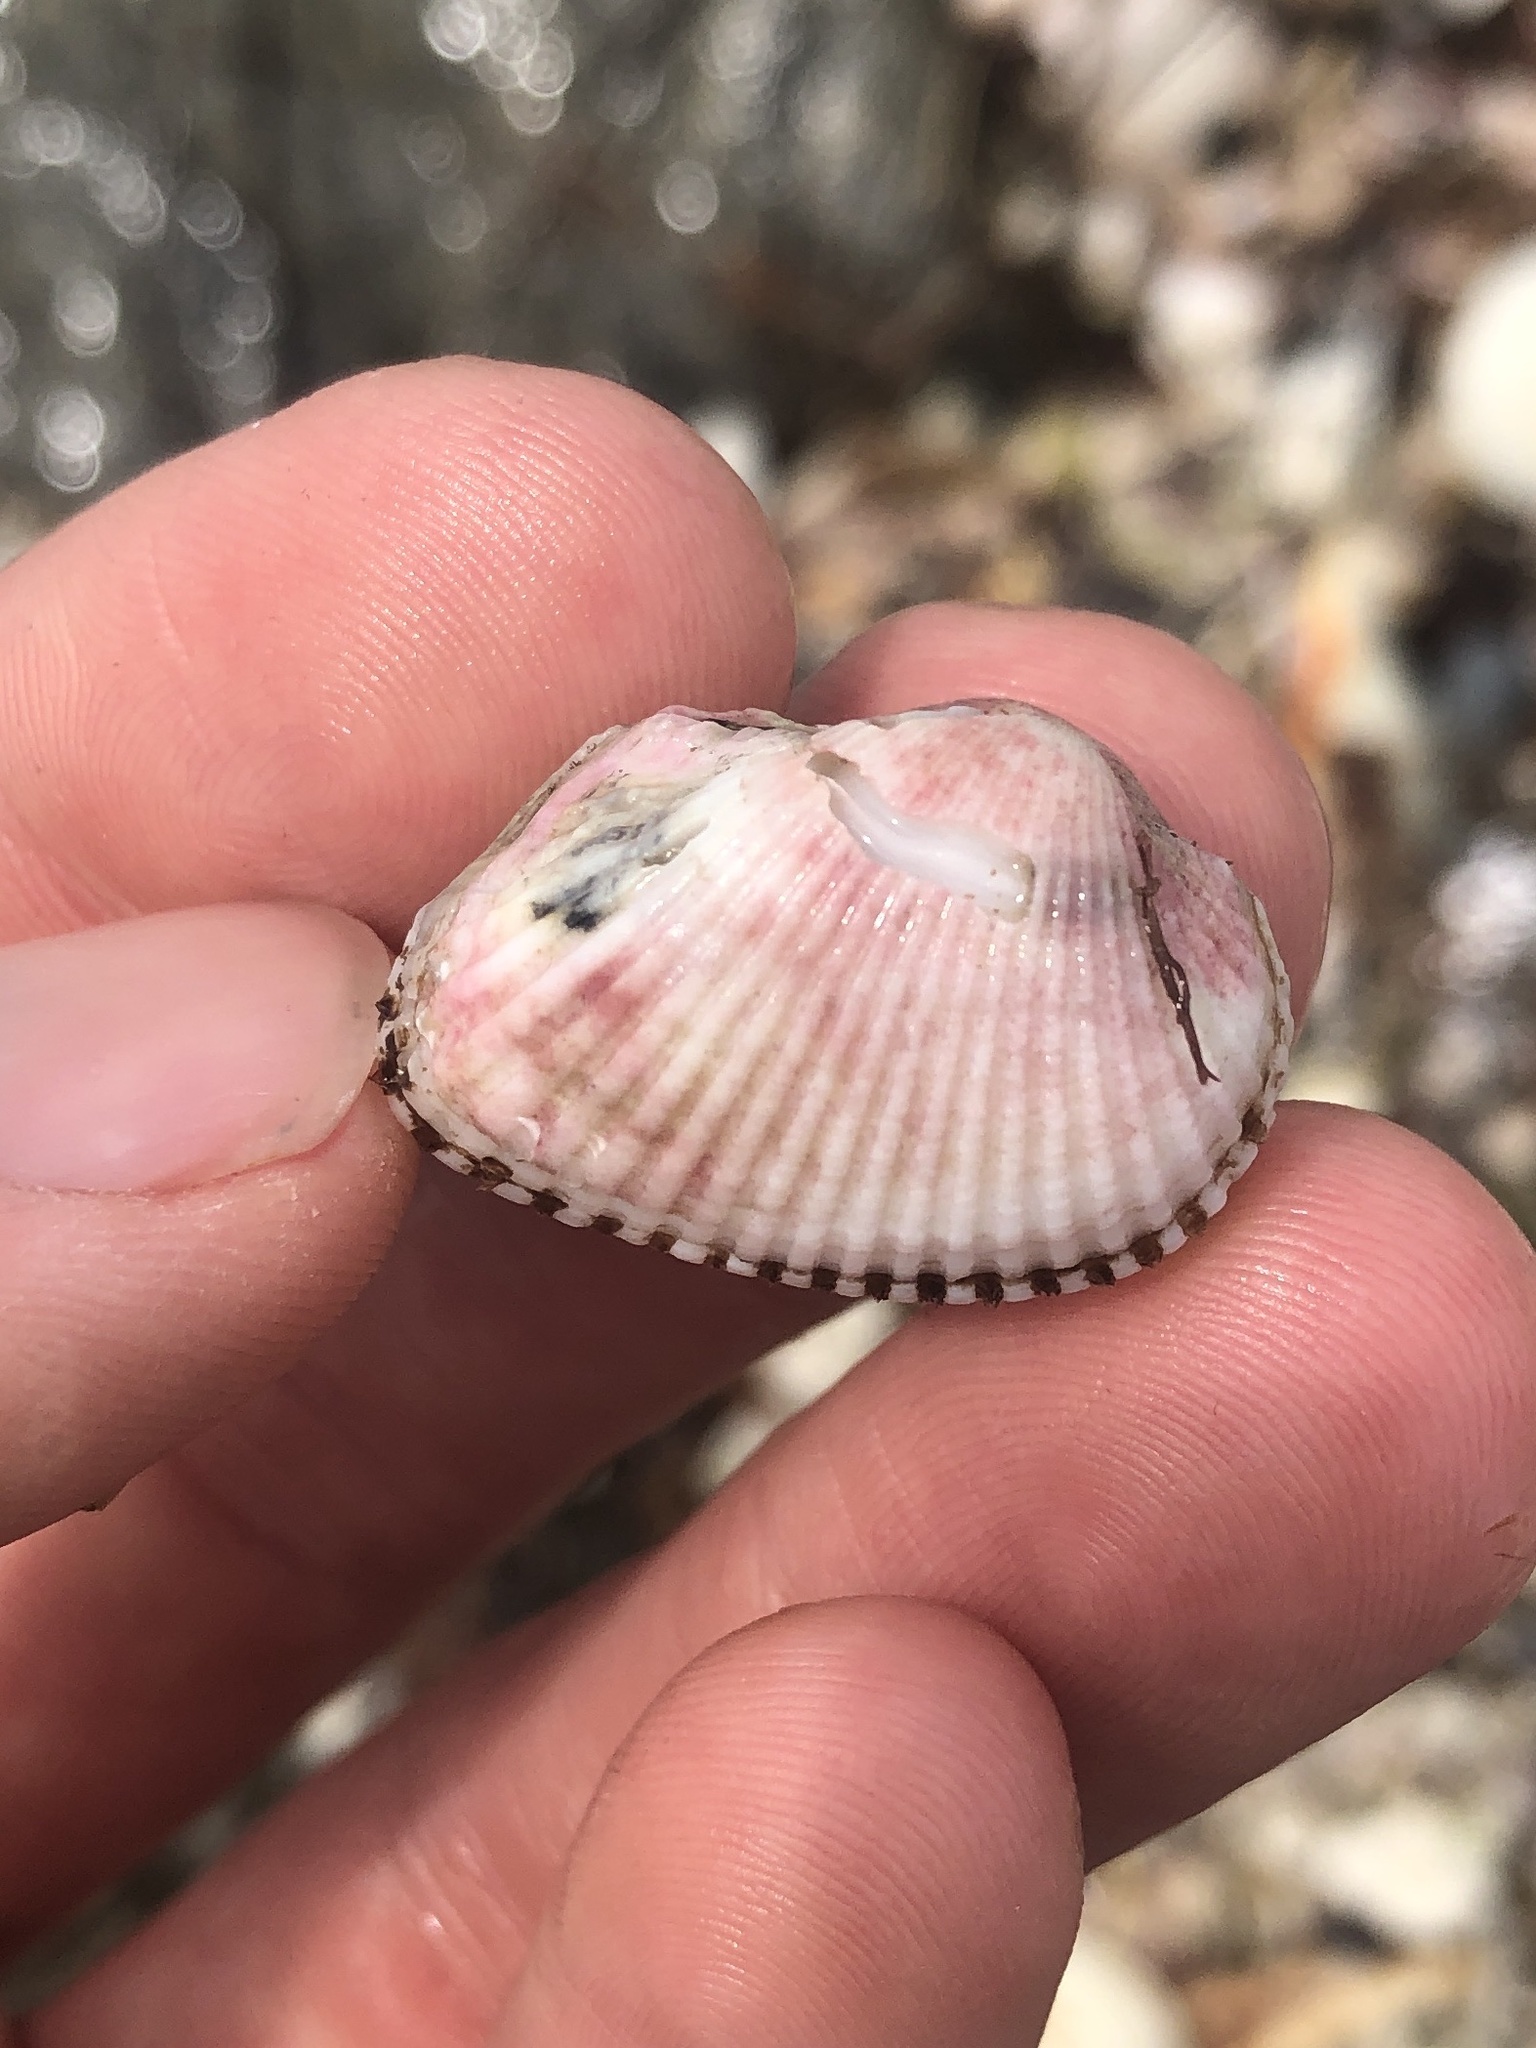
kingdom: Animalia
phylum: Mollusca
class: Bivalvia
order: Arcida
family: Arcidae
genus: Anadara
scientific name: Anadara transversa
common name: Transverse ark
